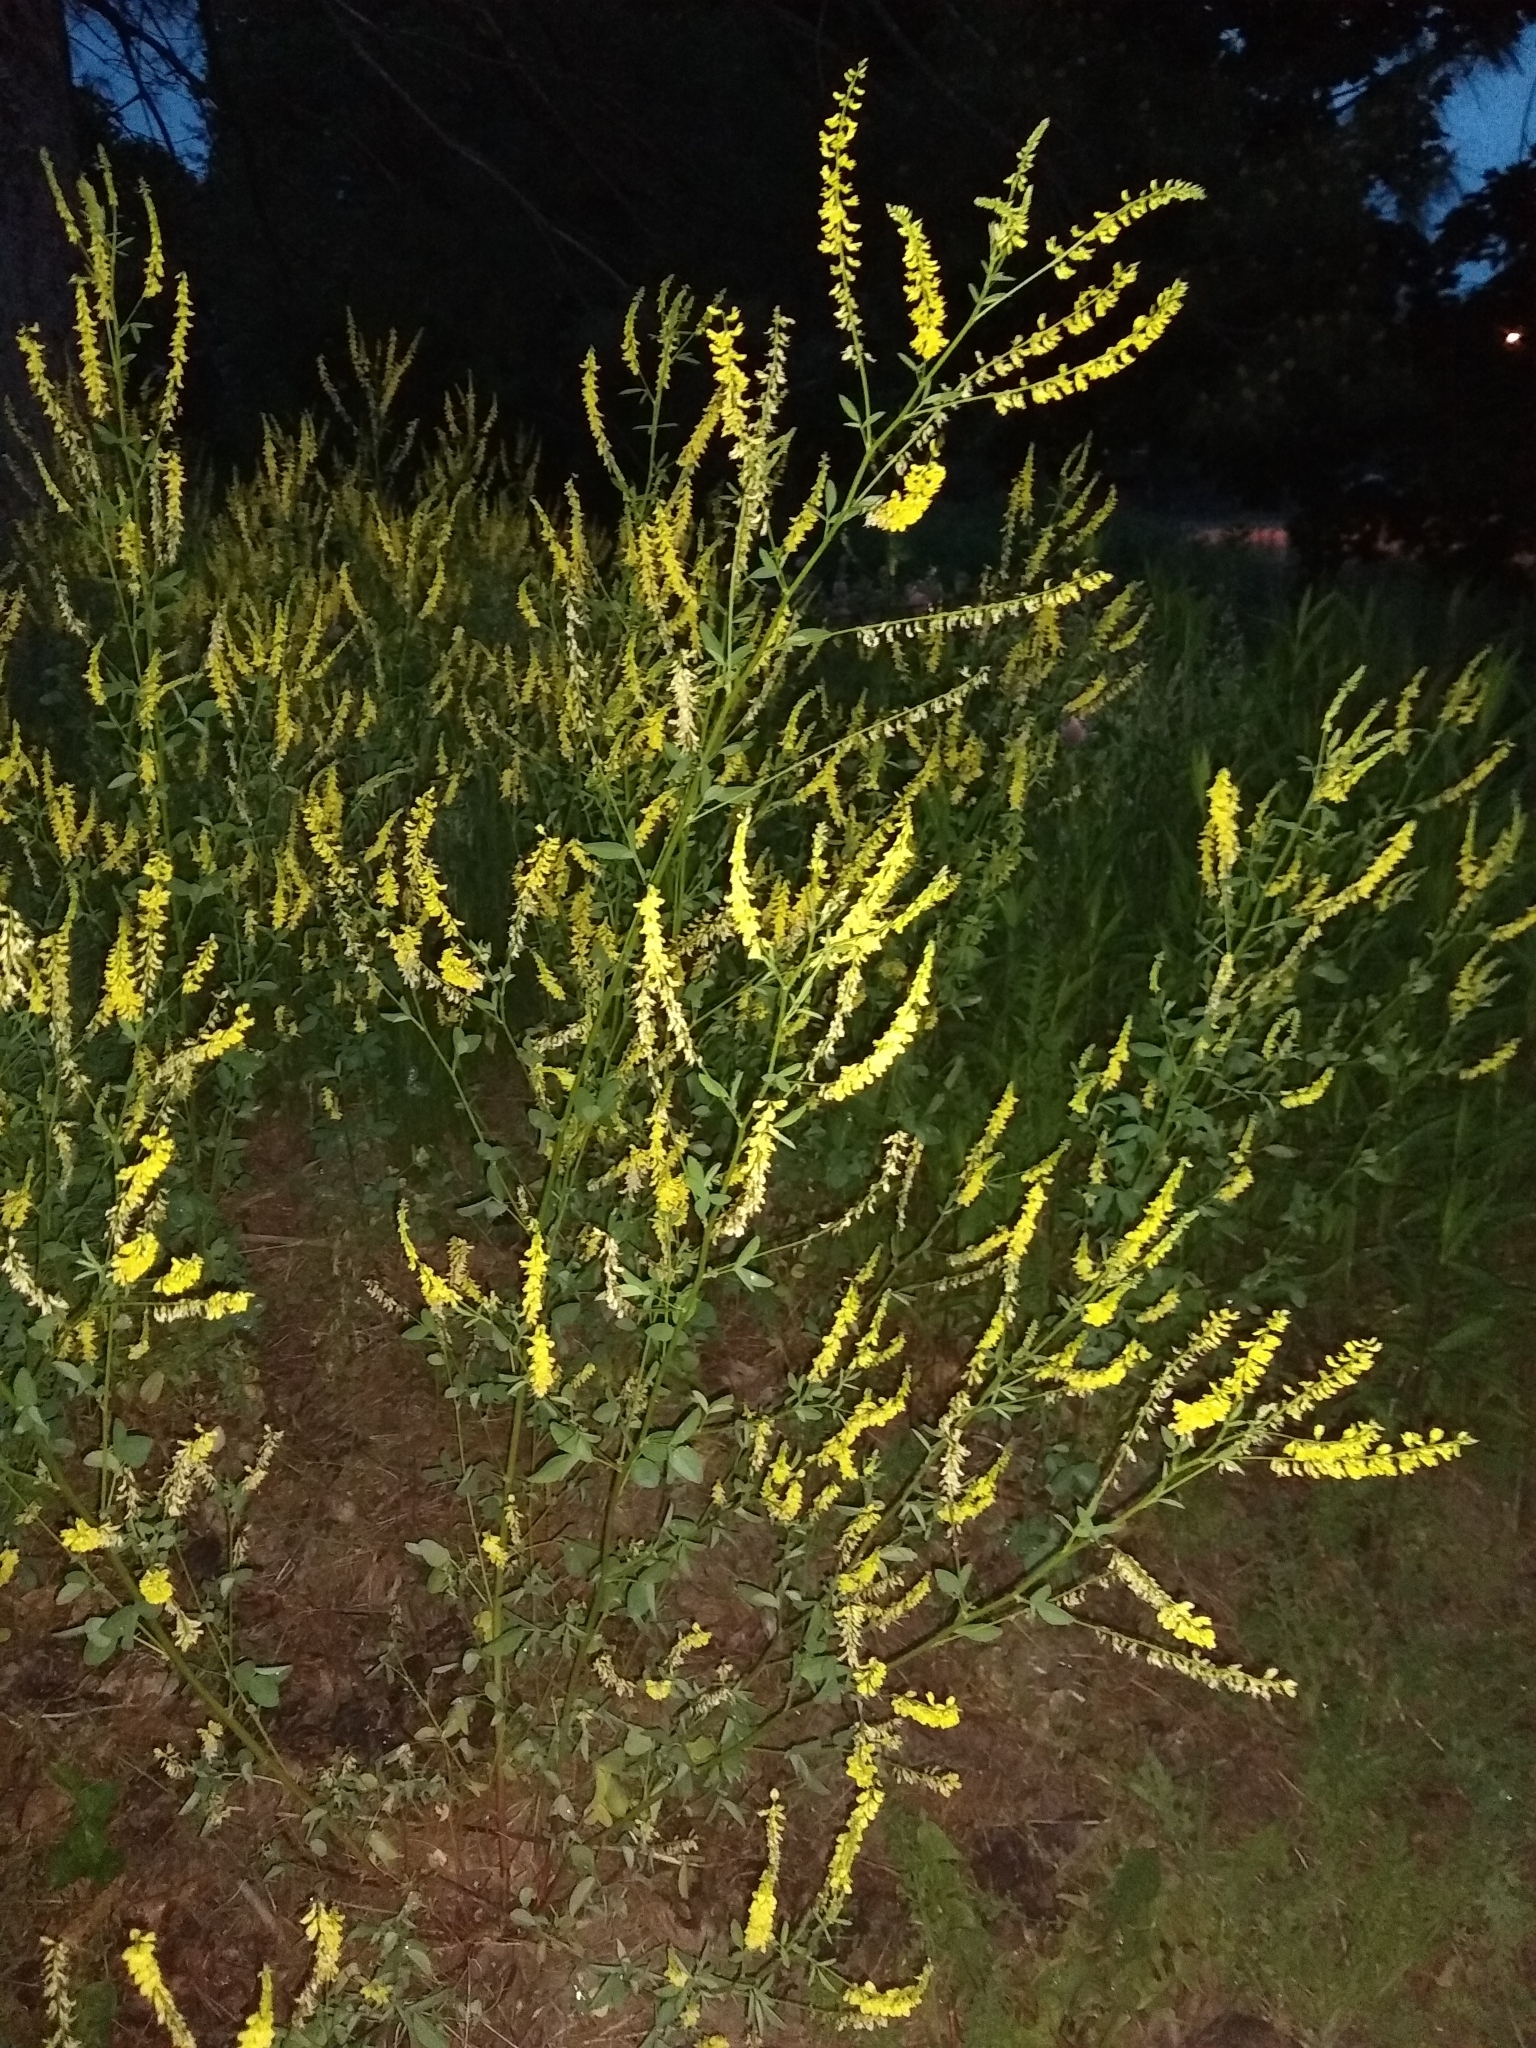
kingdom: Plantae
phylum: Tracheophyta
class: Magnoliopsida
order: Fabales
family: Fabaceae
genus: Melilotus
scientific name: Melilotus officinalis
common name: Sweetclover
